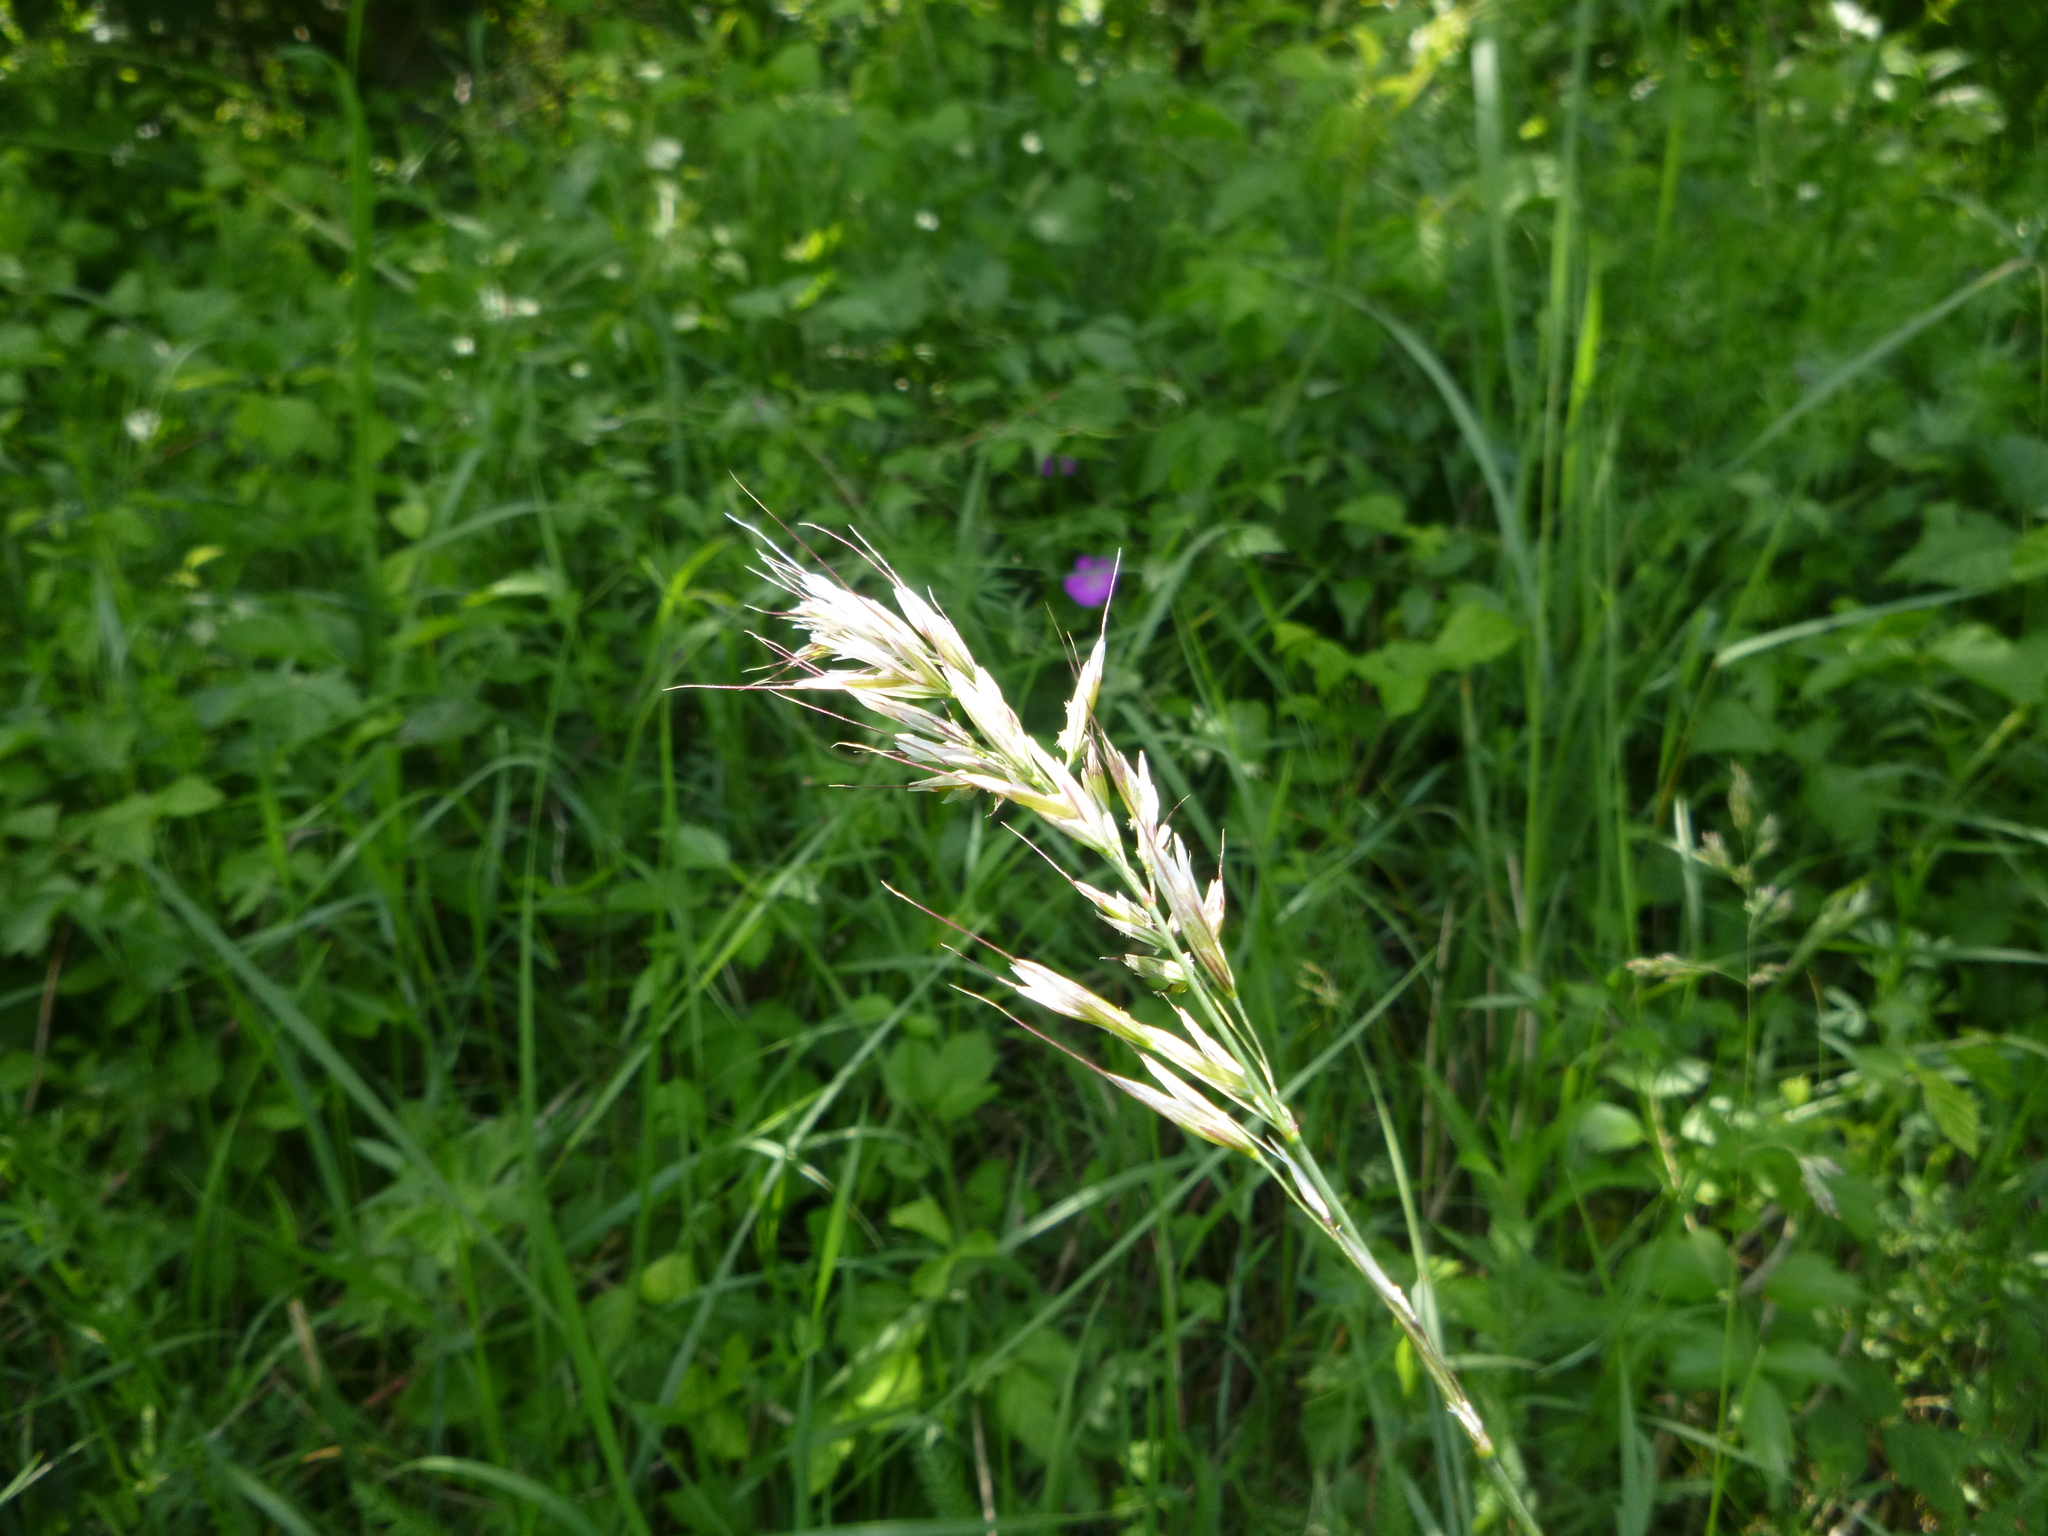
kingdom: Plantae
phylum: Tracheophyta
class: Liliopsida
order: Poales
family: Poaceae
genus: Avenula
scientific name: Avenula pubescens
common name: Downy alpine oatgrass
